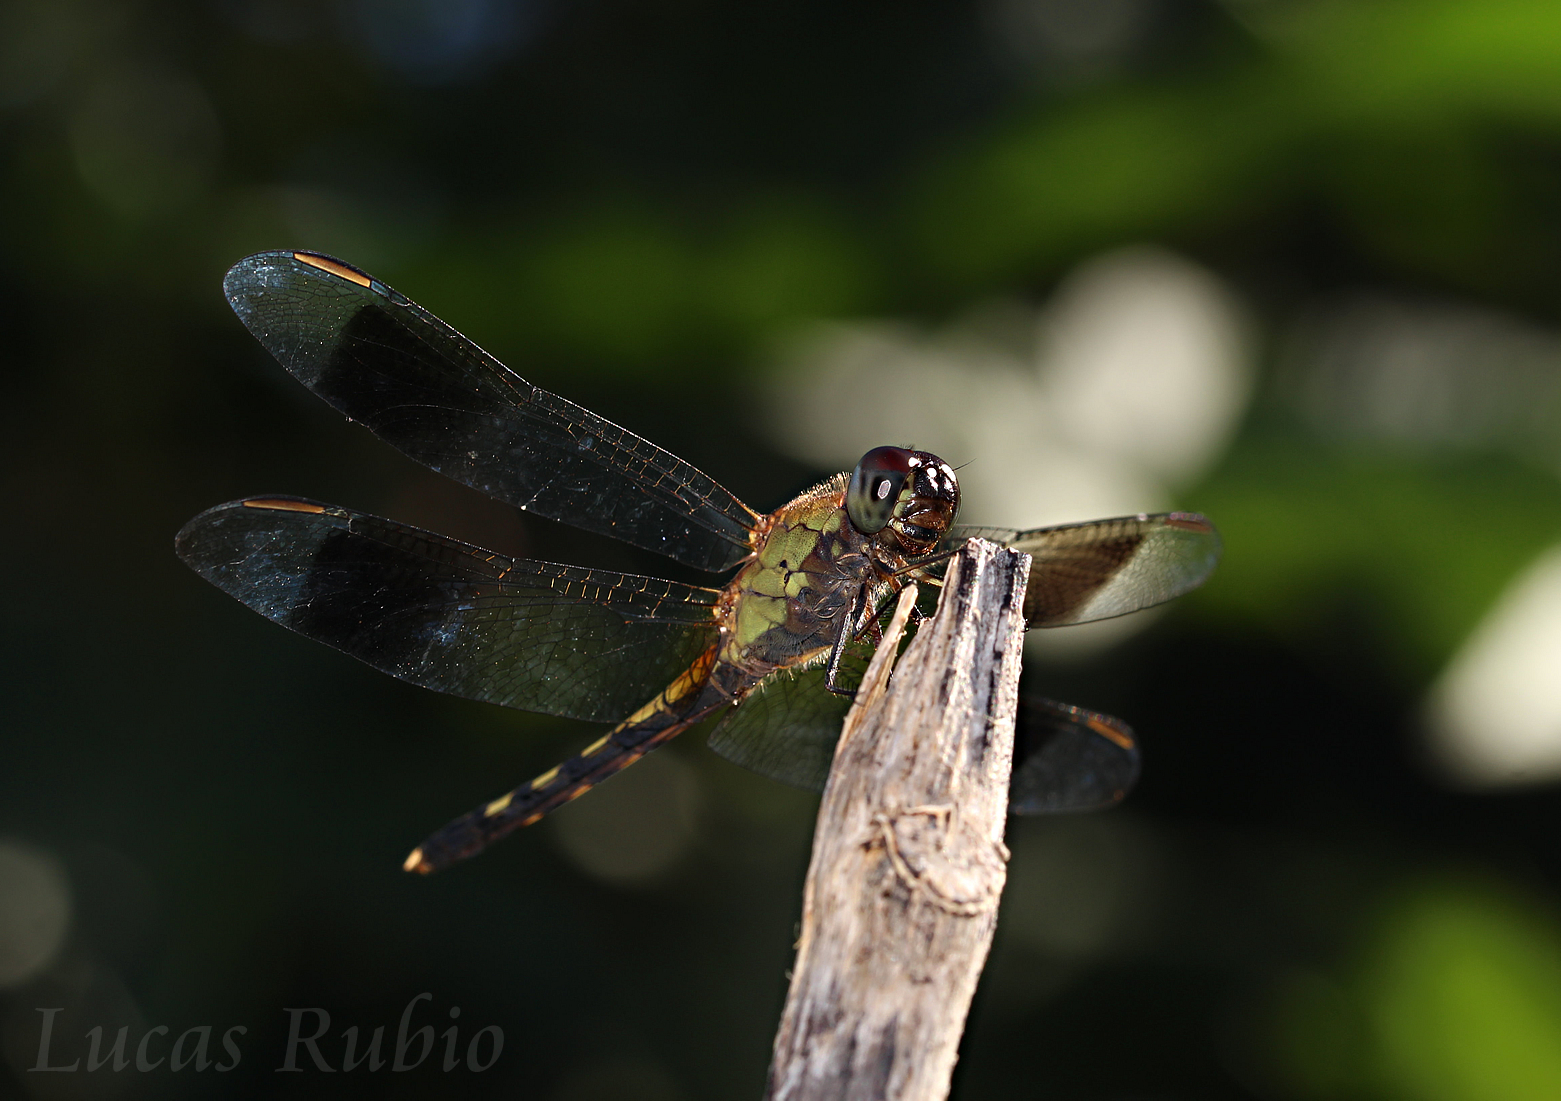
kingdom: Animalia
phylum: Arthropoda
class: Insecta
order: Odonata
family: Libellulidae
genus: Erythrodiplax
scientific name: Erythrodiplax umbrata
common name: Band-winged dragonlet
